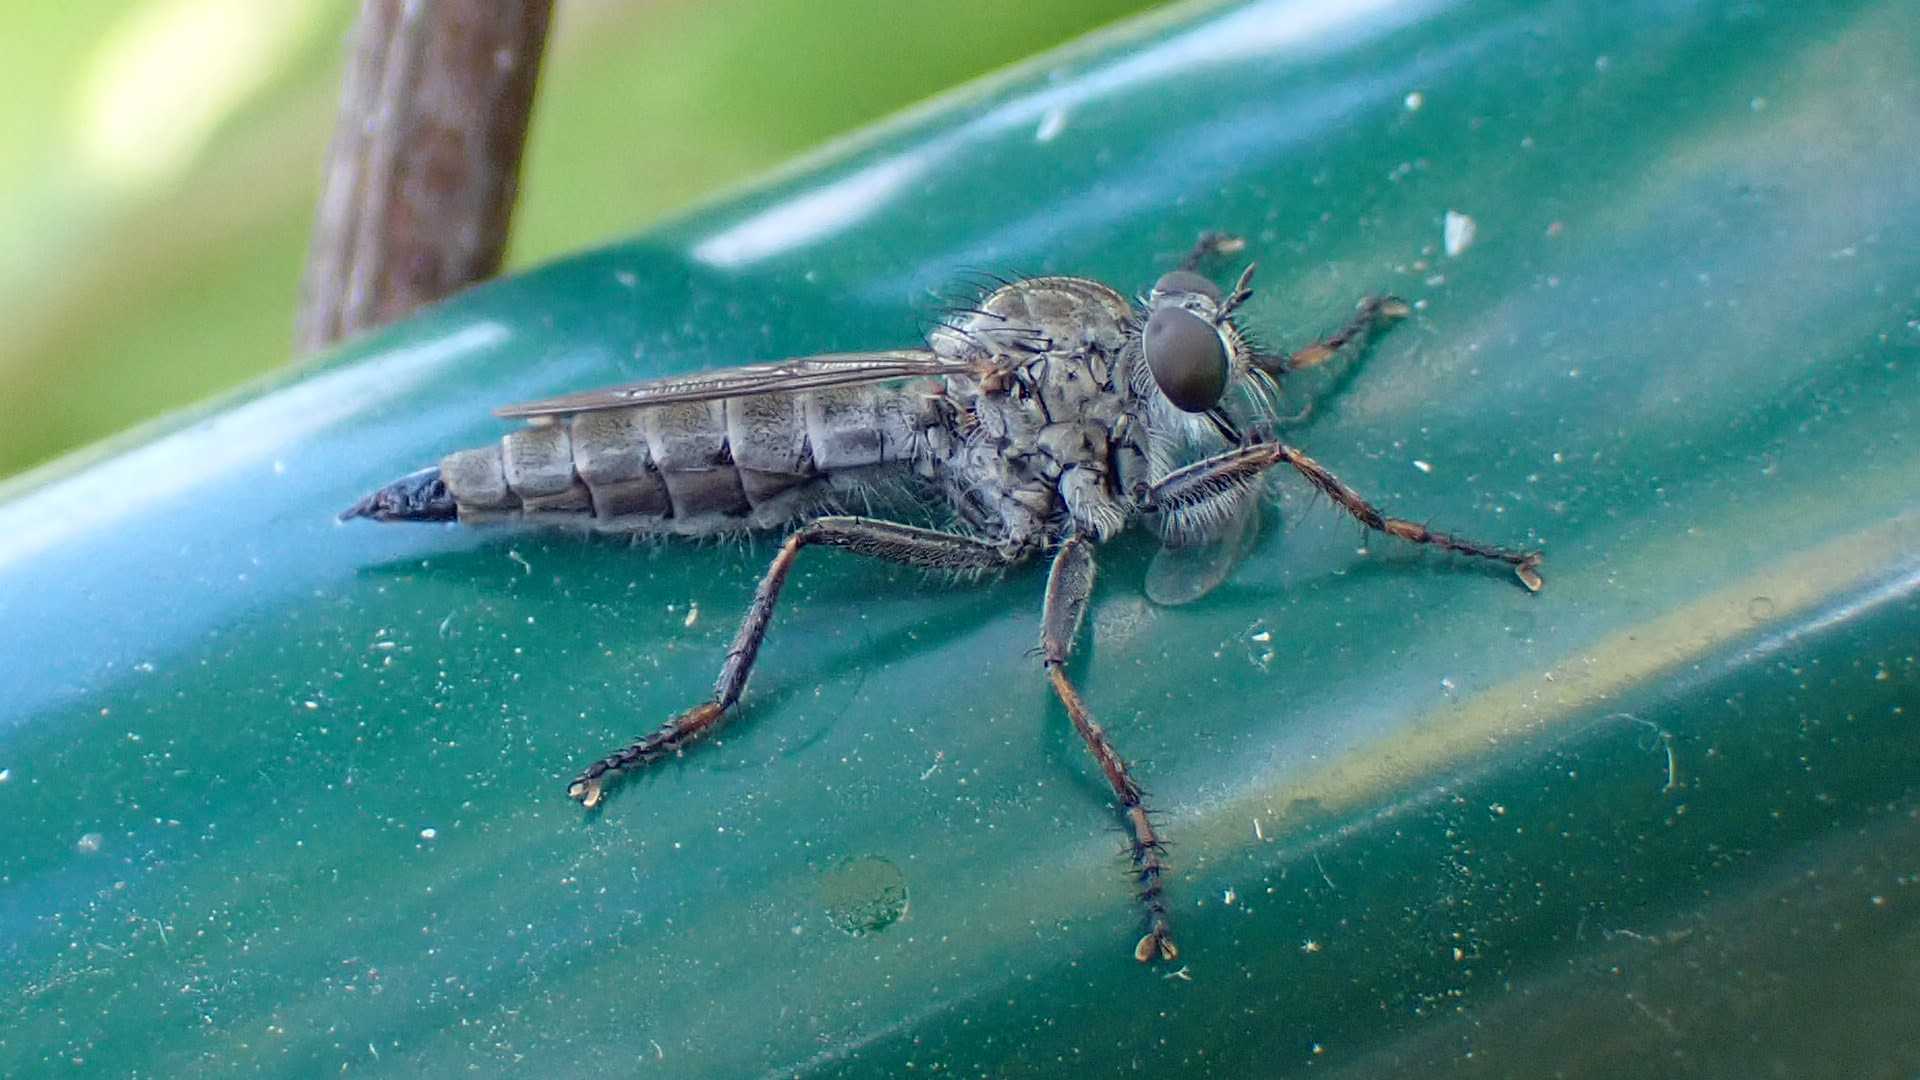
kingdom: Animalia
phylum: Arthropoda
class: Insecta
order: Diptera
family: Asilidae
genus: Machimus
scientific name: Machimus atricapillus
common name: Kite-tailed robberfly
